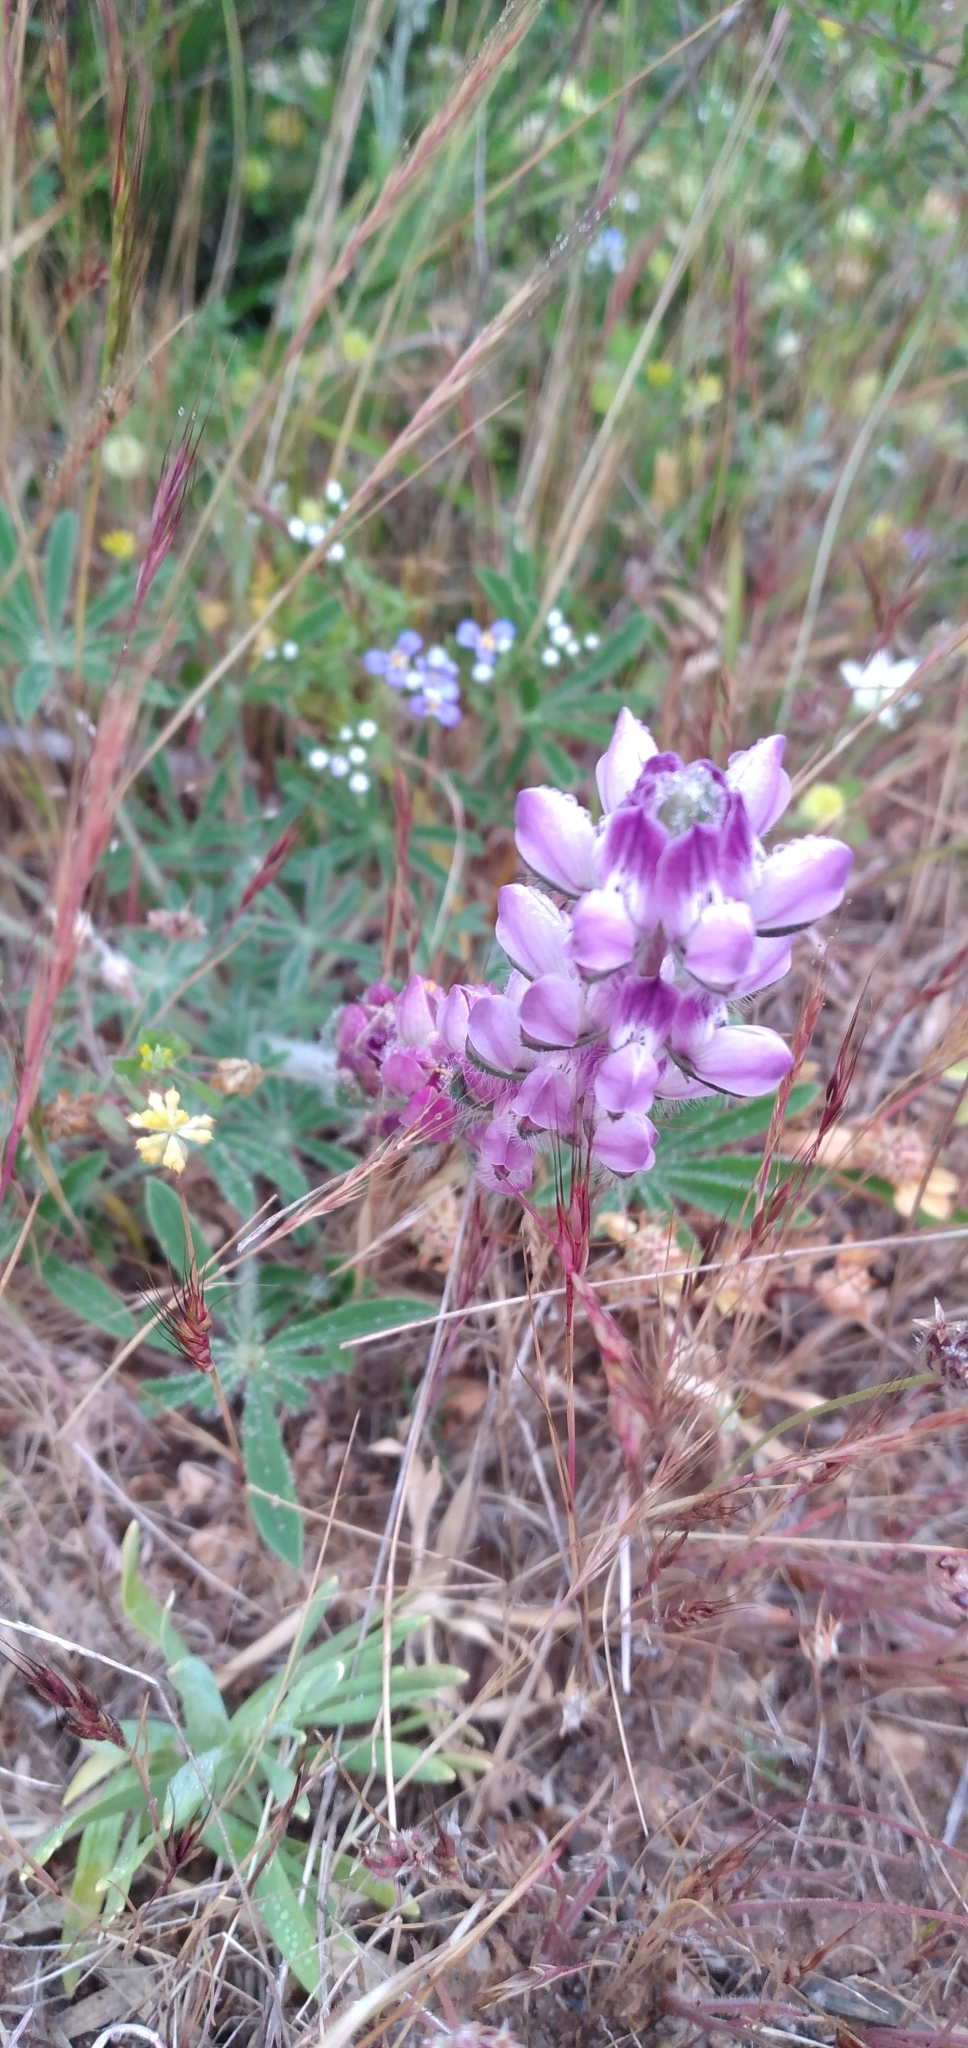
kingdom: Plantae
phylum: Tracheophyta
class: Magnoliopsida
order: Fabales
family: Fabaceae
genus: Lupinus
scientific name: Lupinus microcarpus
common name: Chick lupine
